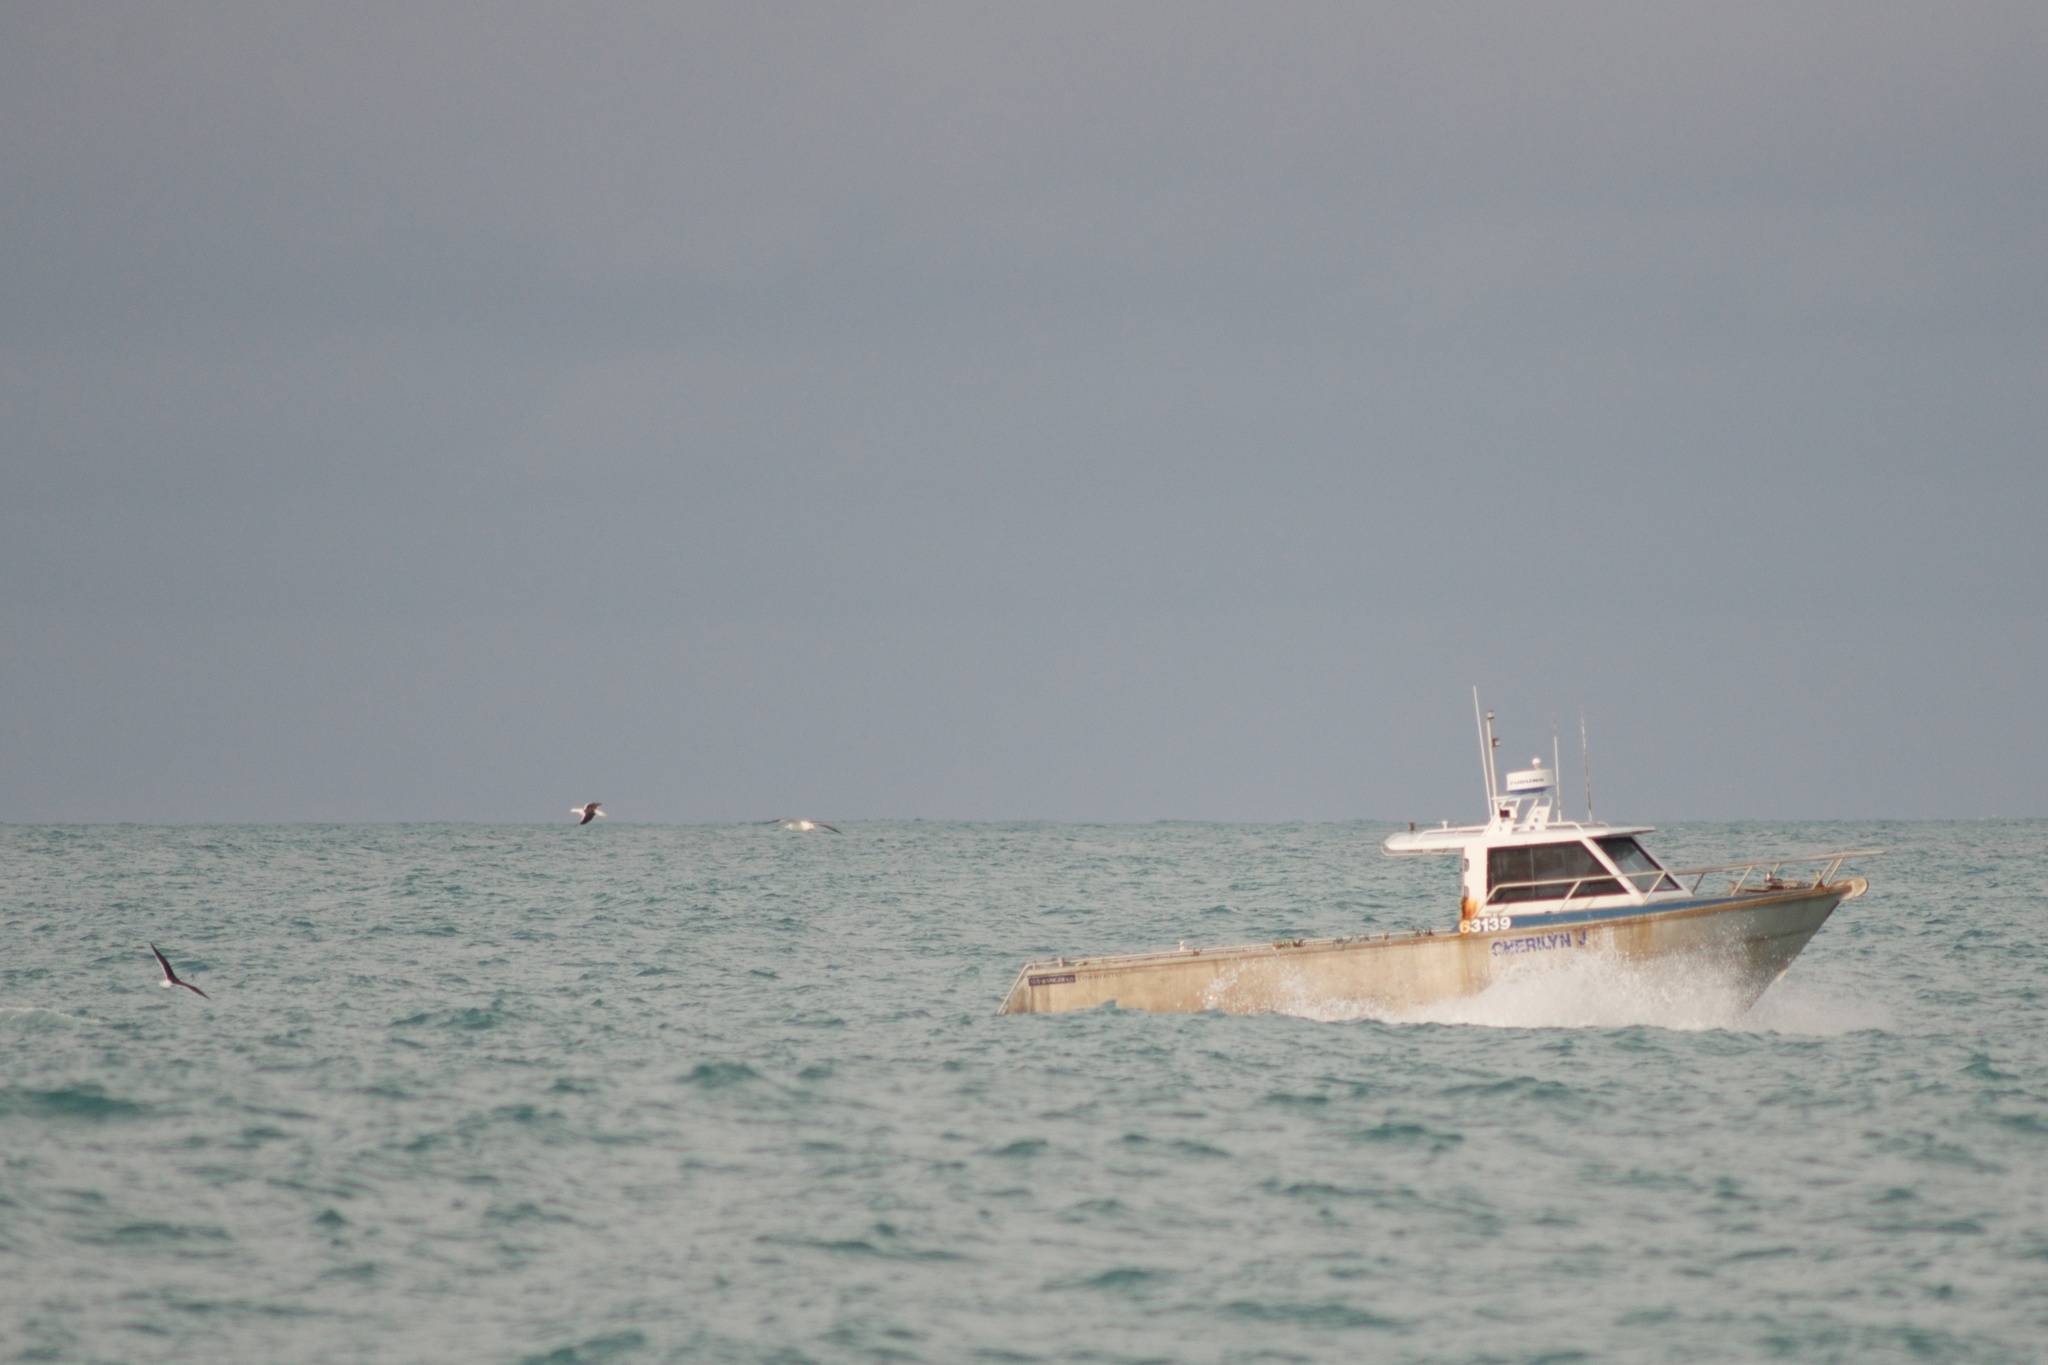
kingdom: Animalia
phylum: Chordata
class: Aves
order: Charadriiformes
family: Laridae
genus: Larus
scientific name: Larus dominicanus
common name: Kelp gull
